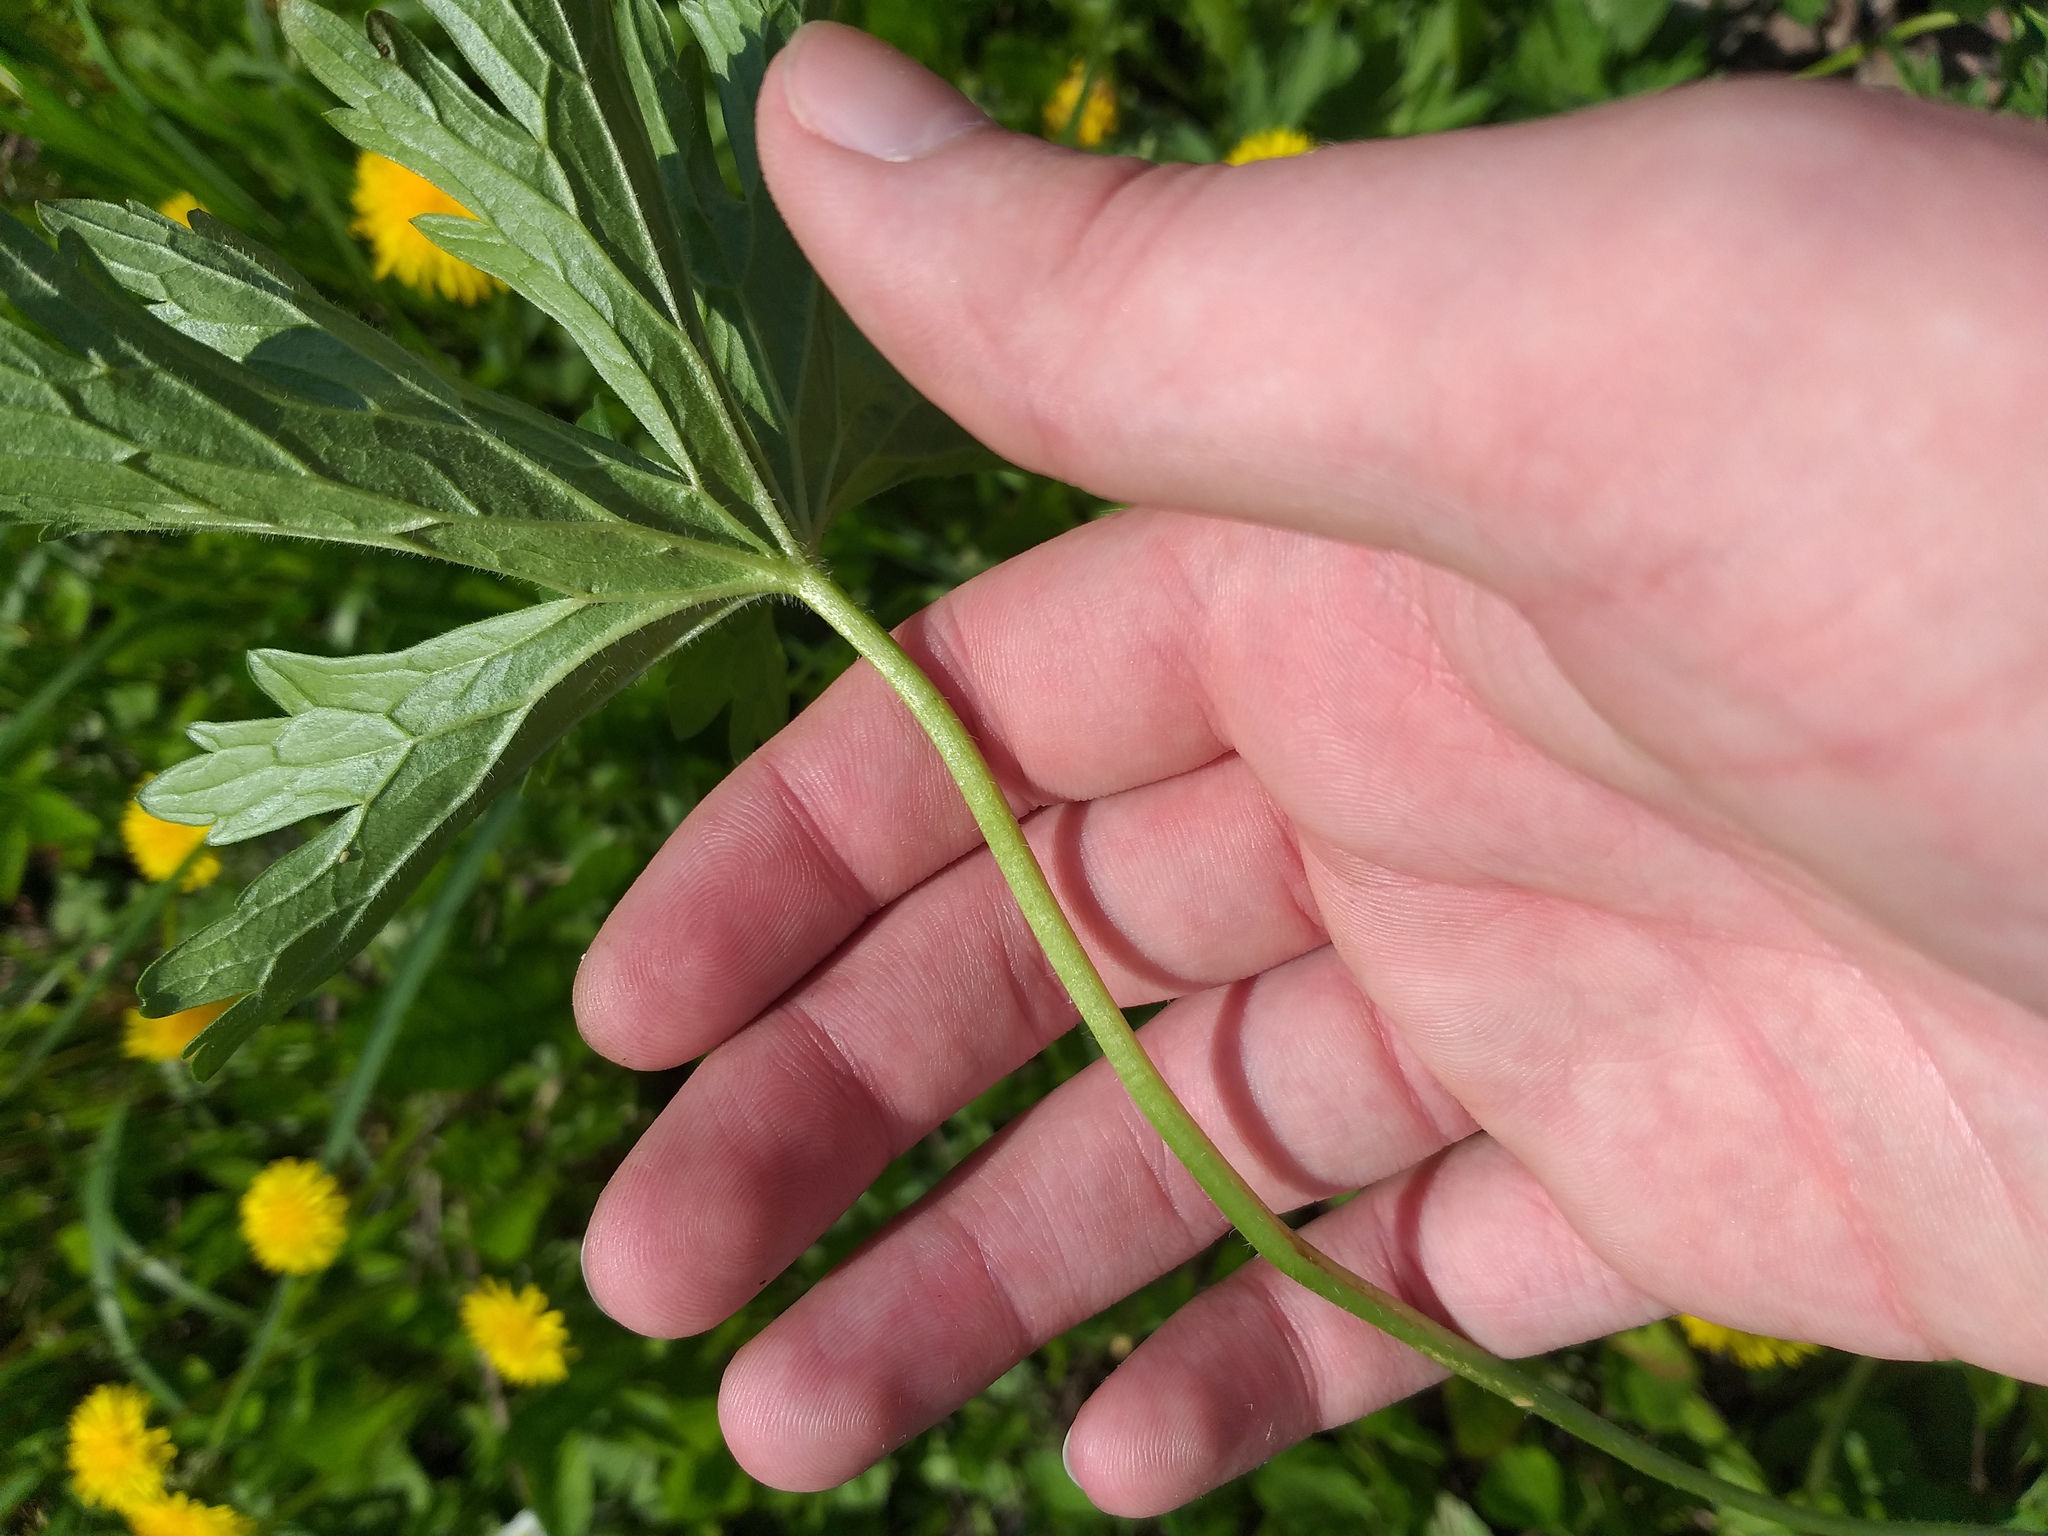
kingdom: Plantae
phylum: Tracheophyta
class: Magnoliopsida
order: Geraniales
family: Geraniaceae
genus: Geranium
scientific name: Geranium pratense
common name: Meadow crane's-bill
